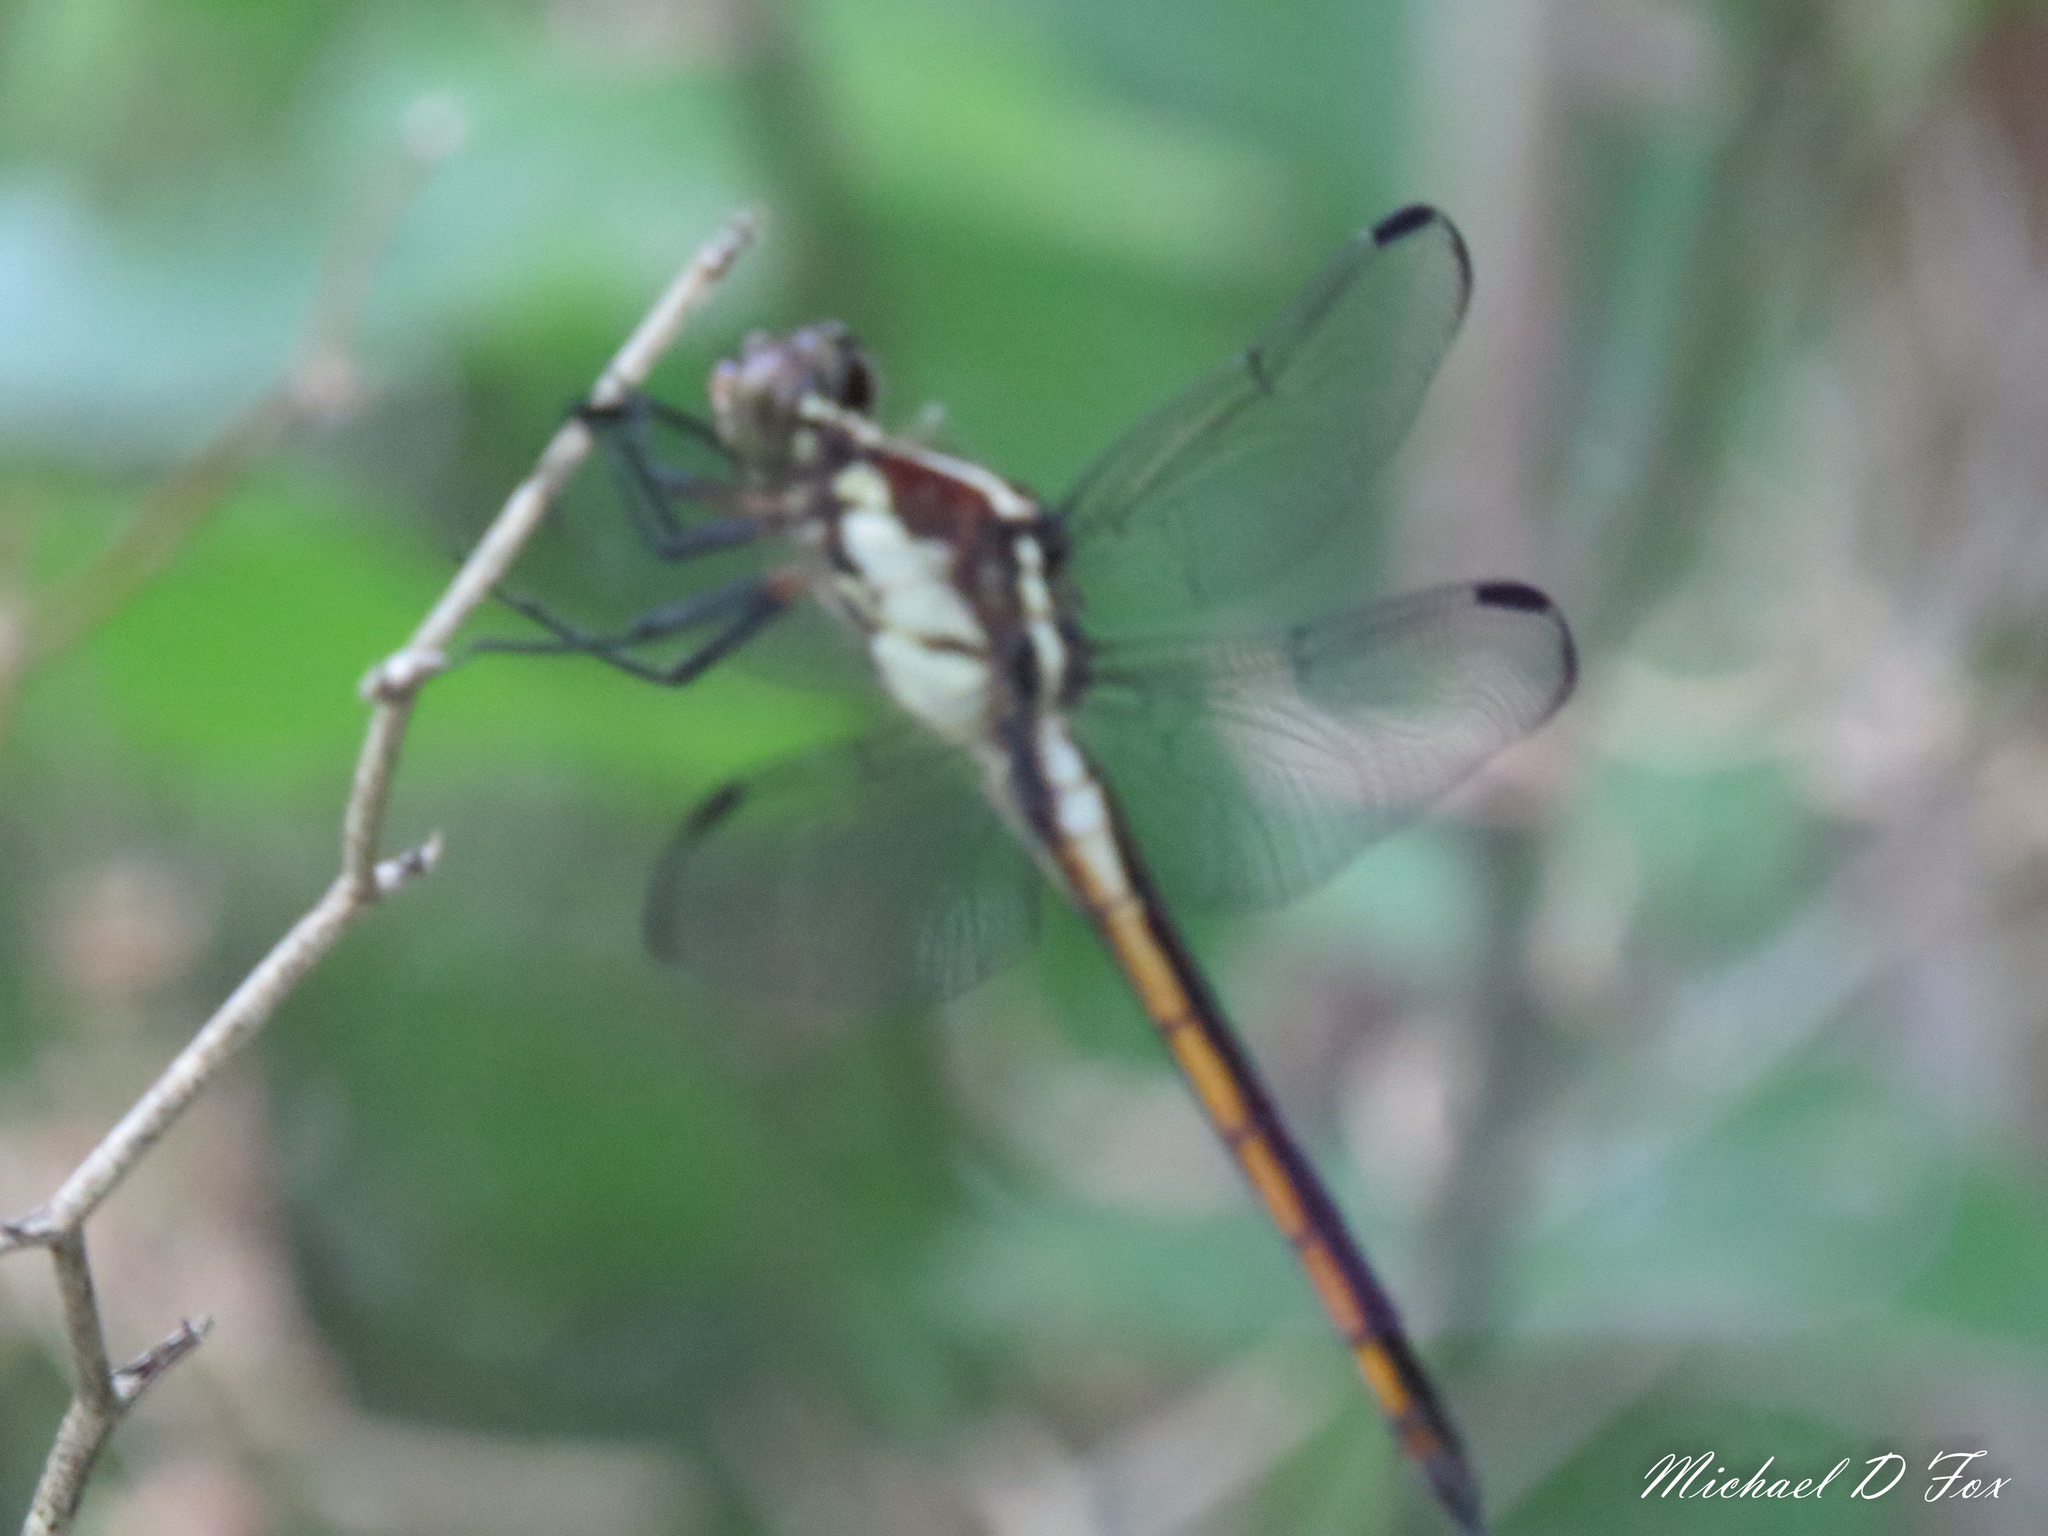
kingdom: Animalia
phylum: Arthropoda
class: Insecta
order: Odonata
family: Libellulidae
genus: Libellula
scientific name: Libellula vibrans
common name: Great blue skimmer
